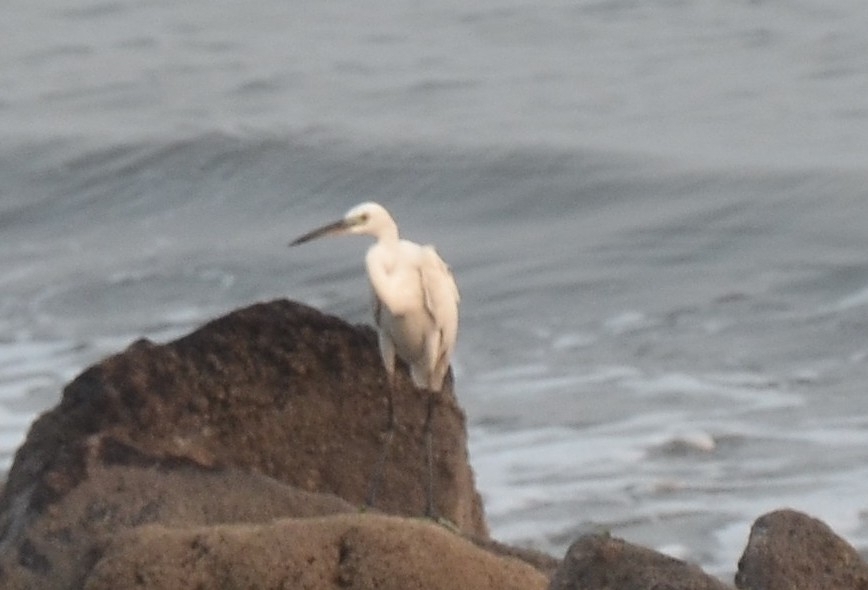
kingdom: Animalia
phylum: Chordata
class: Aves
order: Pelecaniformes
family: Ardeidae
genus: Egretta
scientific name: Egretta garzetta
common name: Little egret
